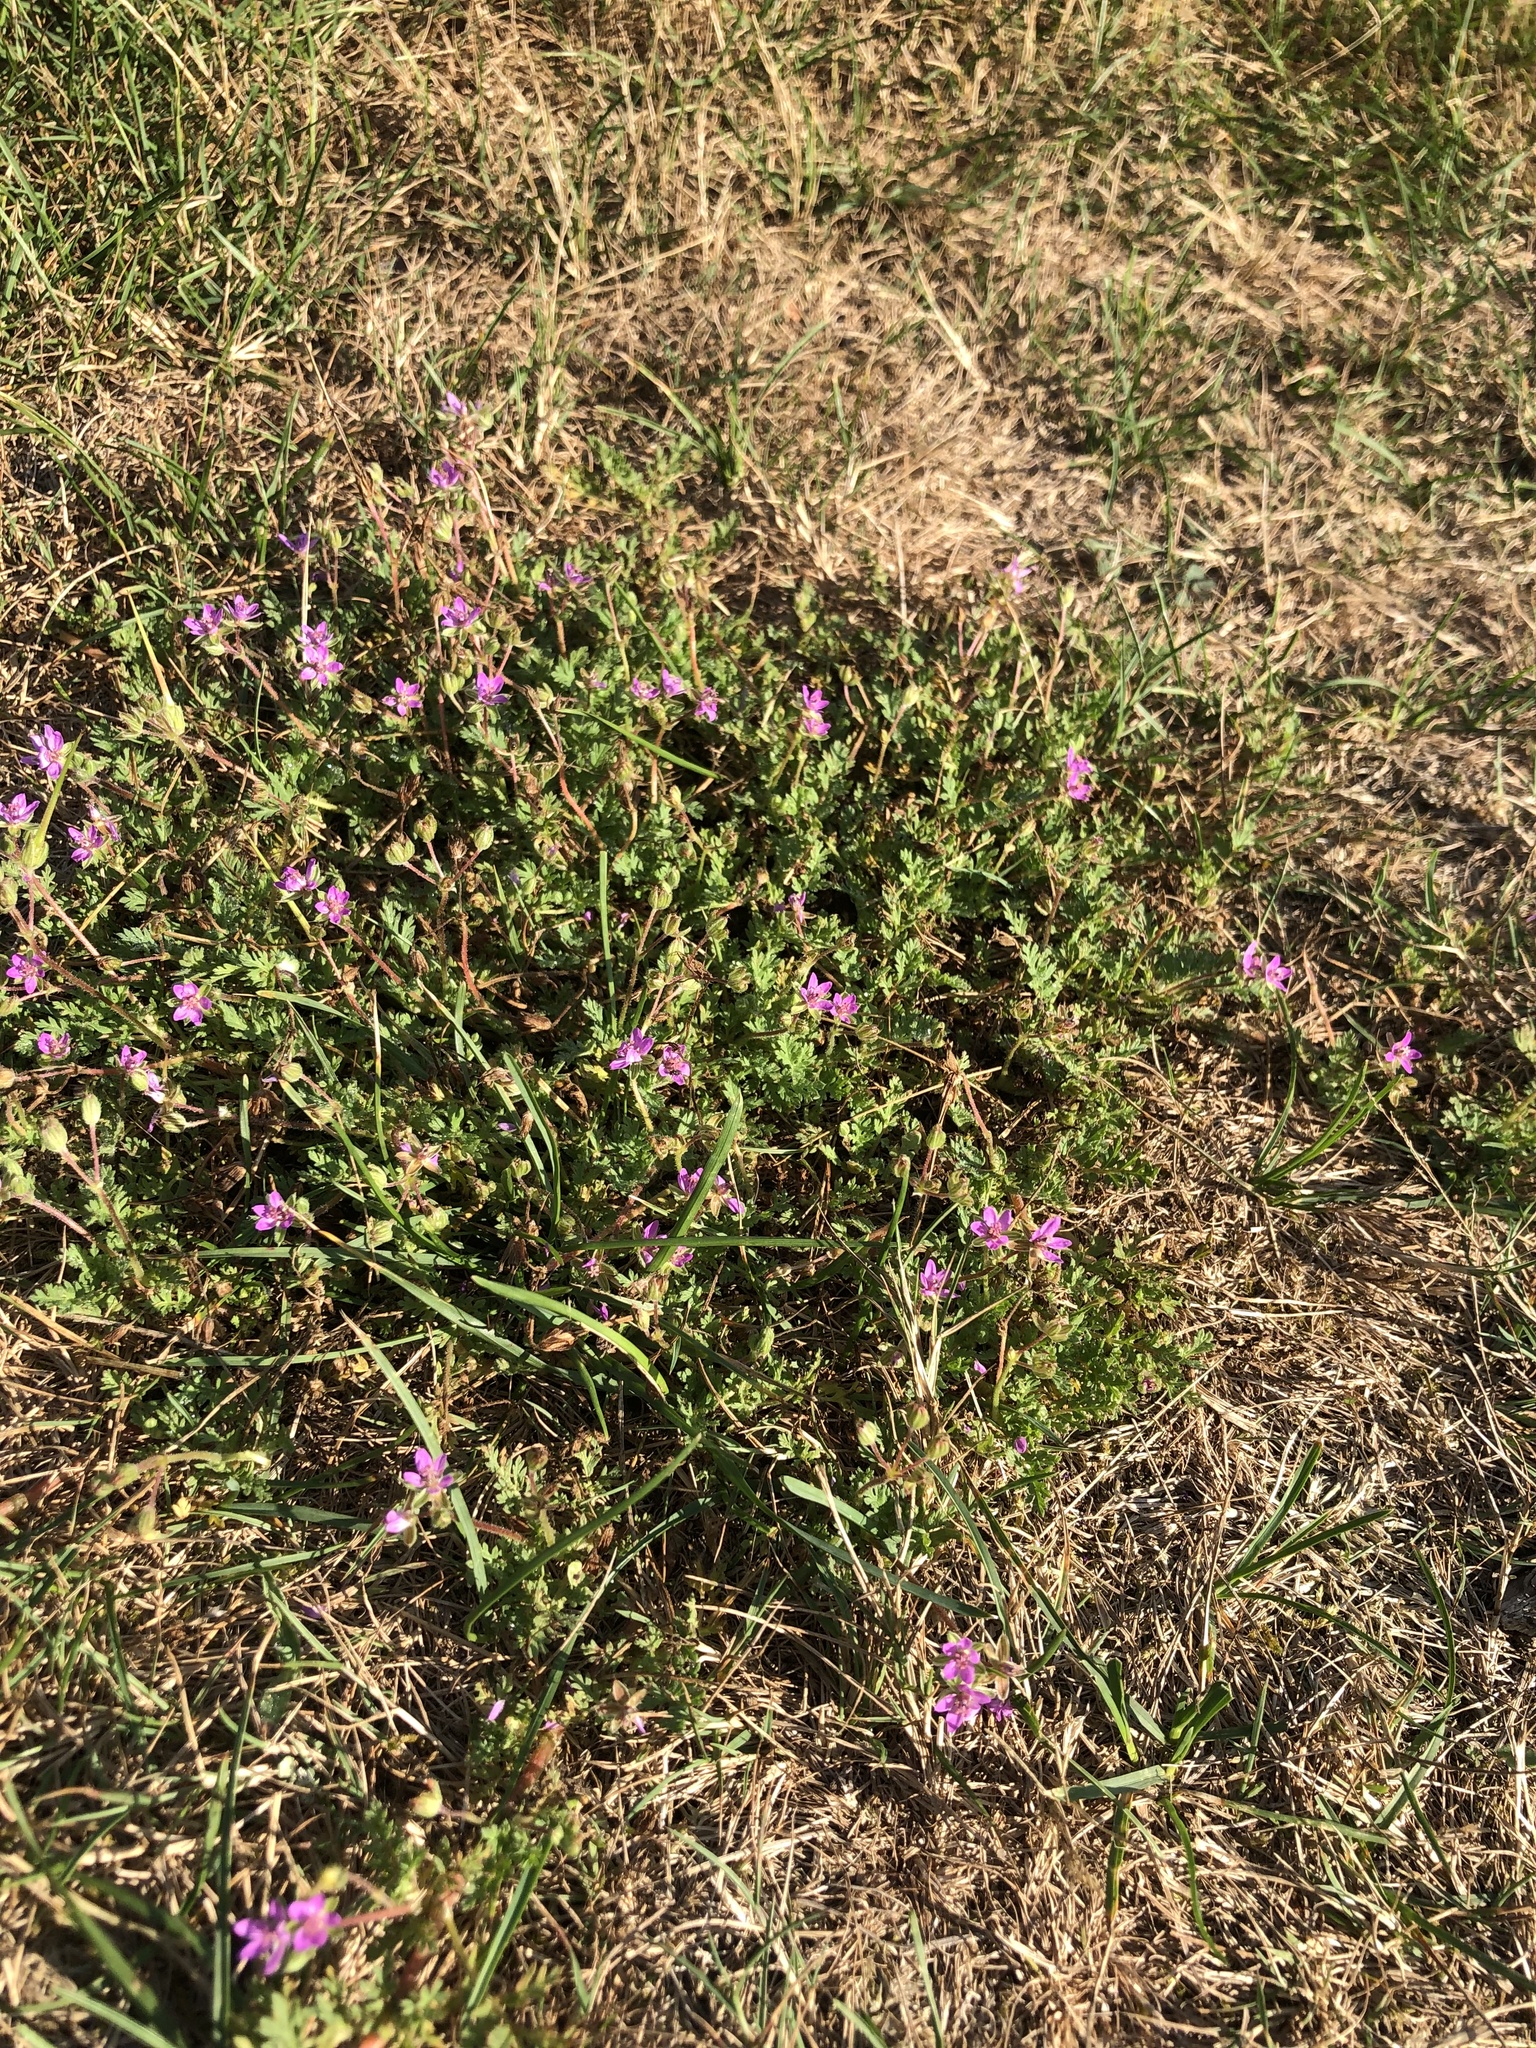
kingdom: Plantae
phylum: Tracheophyta
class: Magnoliopsida
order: Geraniales
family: Geraniaceae
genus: Erodium
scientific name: Erodium cicutarium
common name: Common stork's-bill
